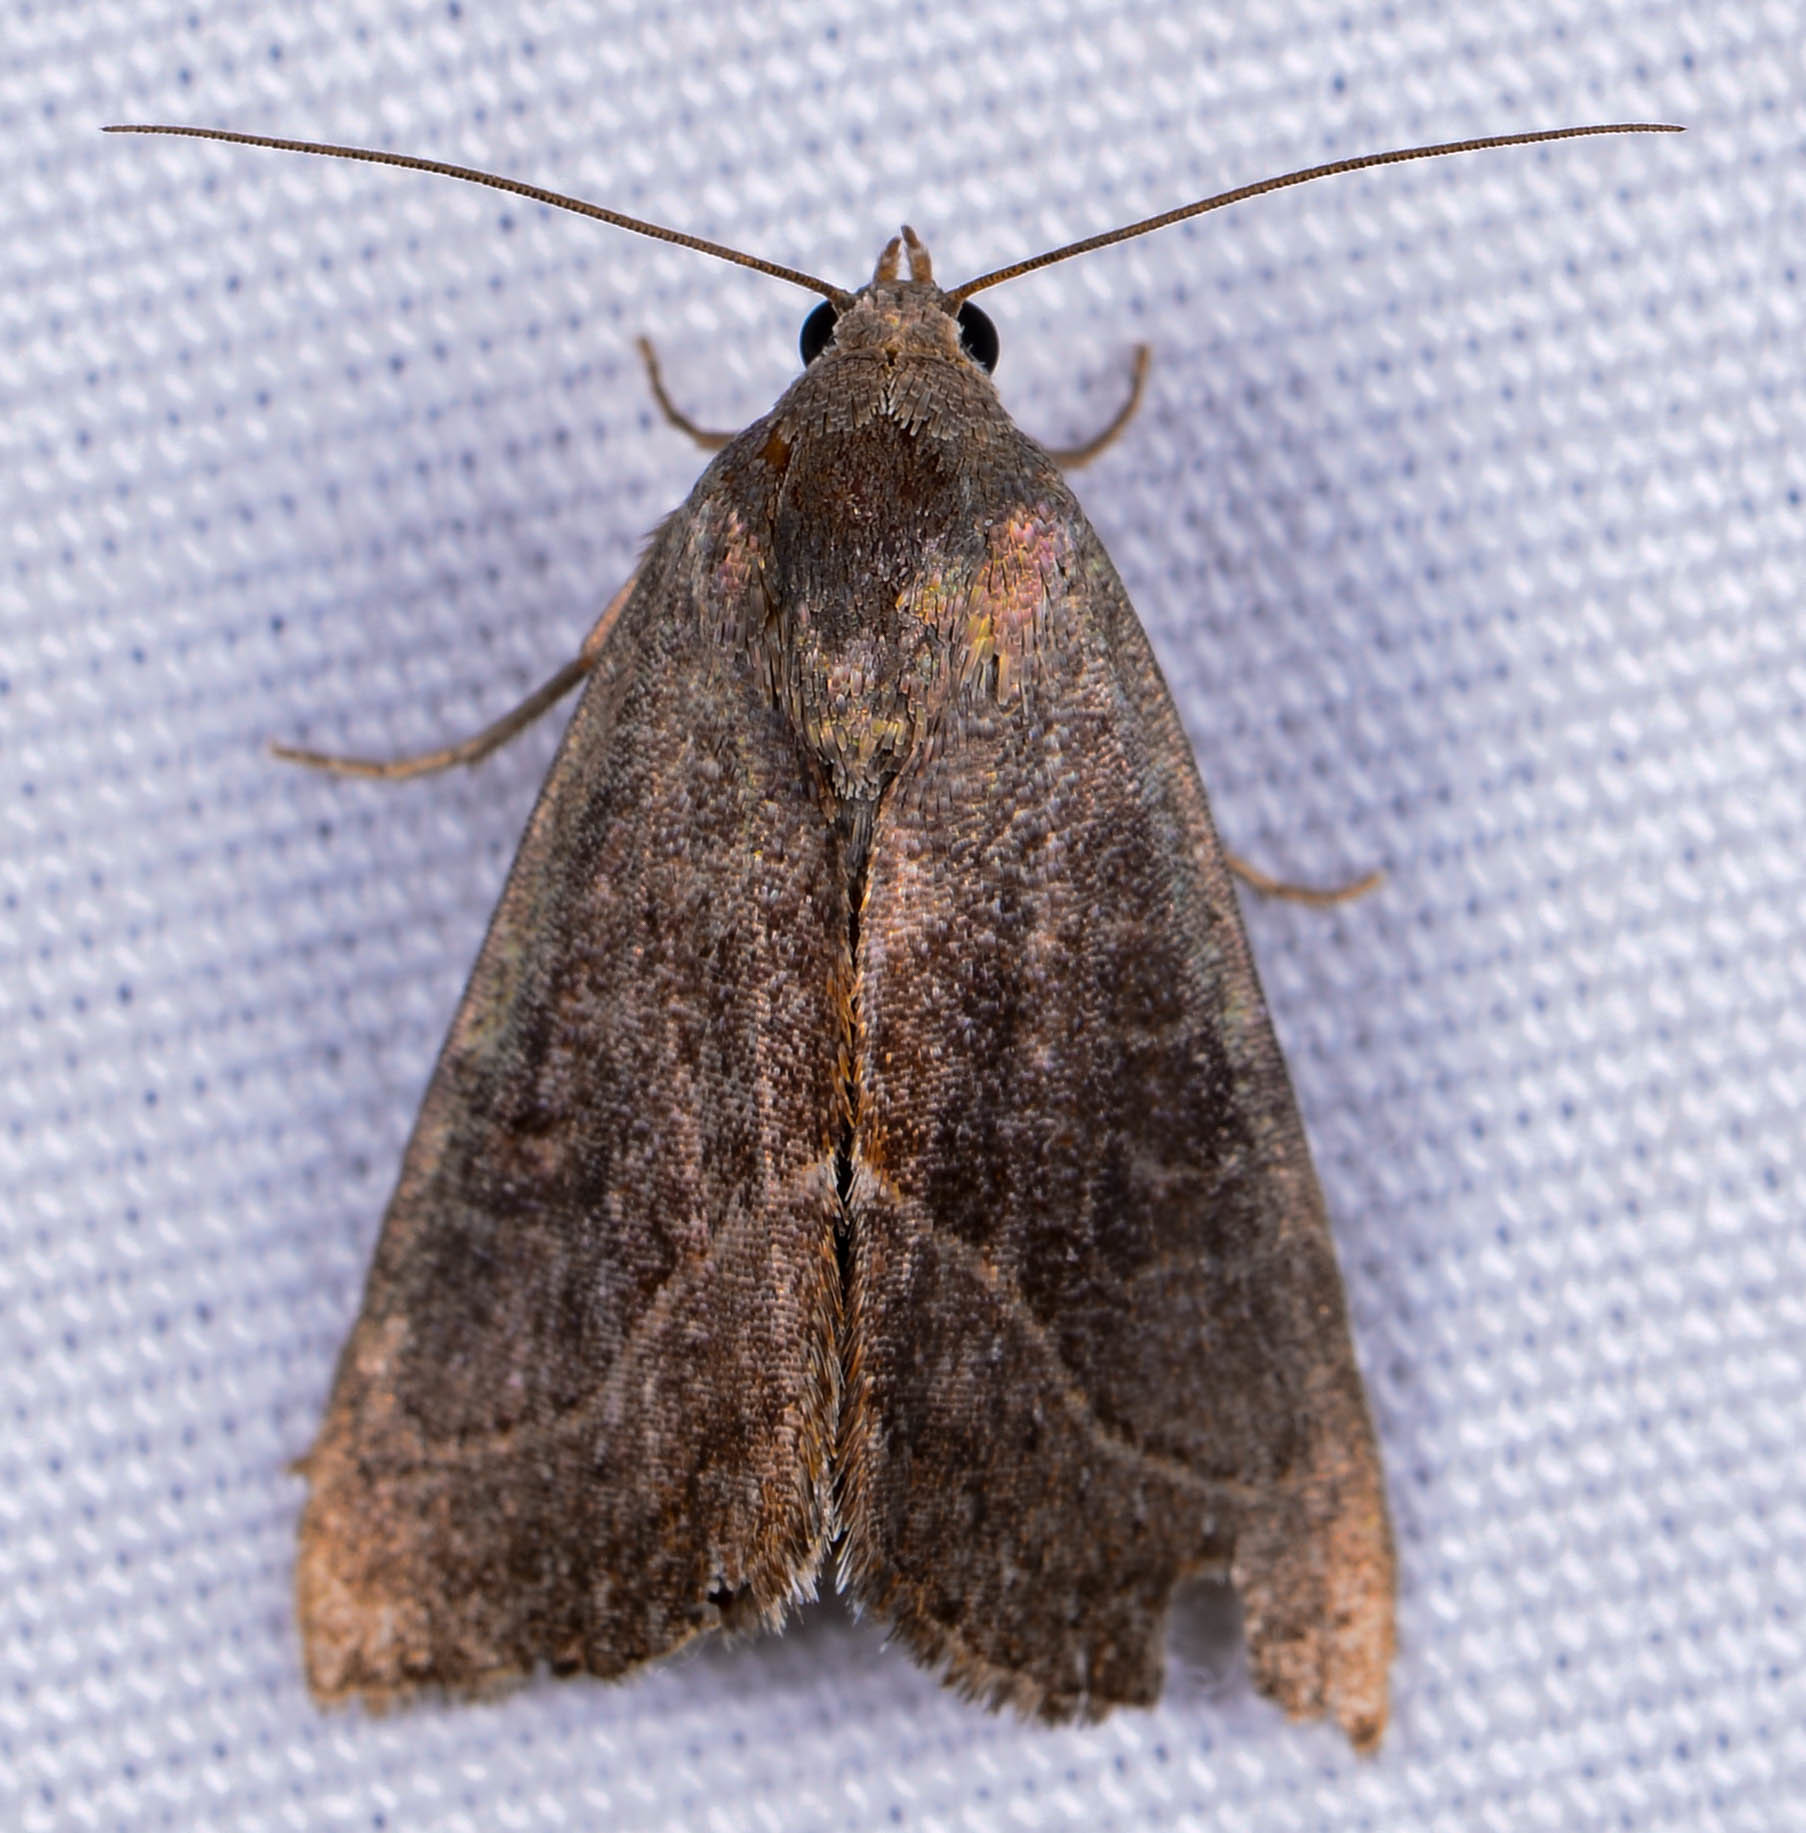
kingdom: Animalia
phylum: Arthropoda
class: Insecta
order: Lepidoptera
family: Noctuidae
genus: Galgula
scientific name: Galgula partita
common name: Wedgeling
